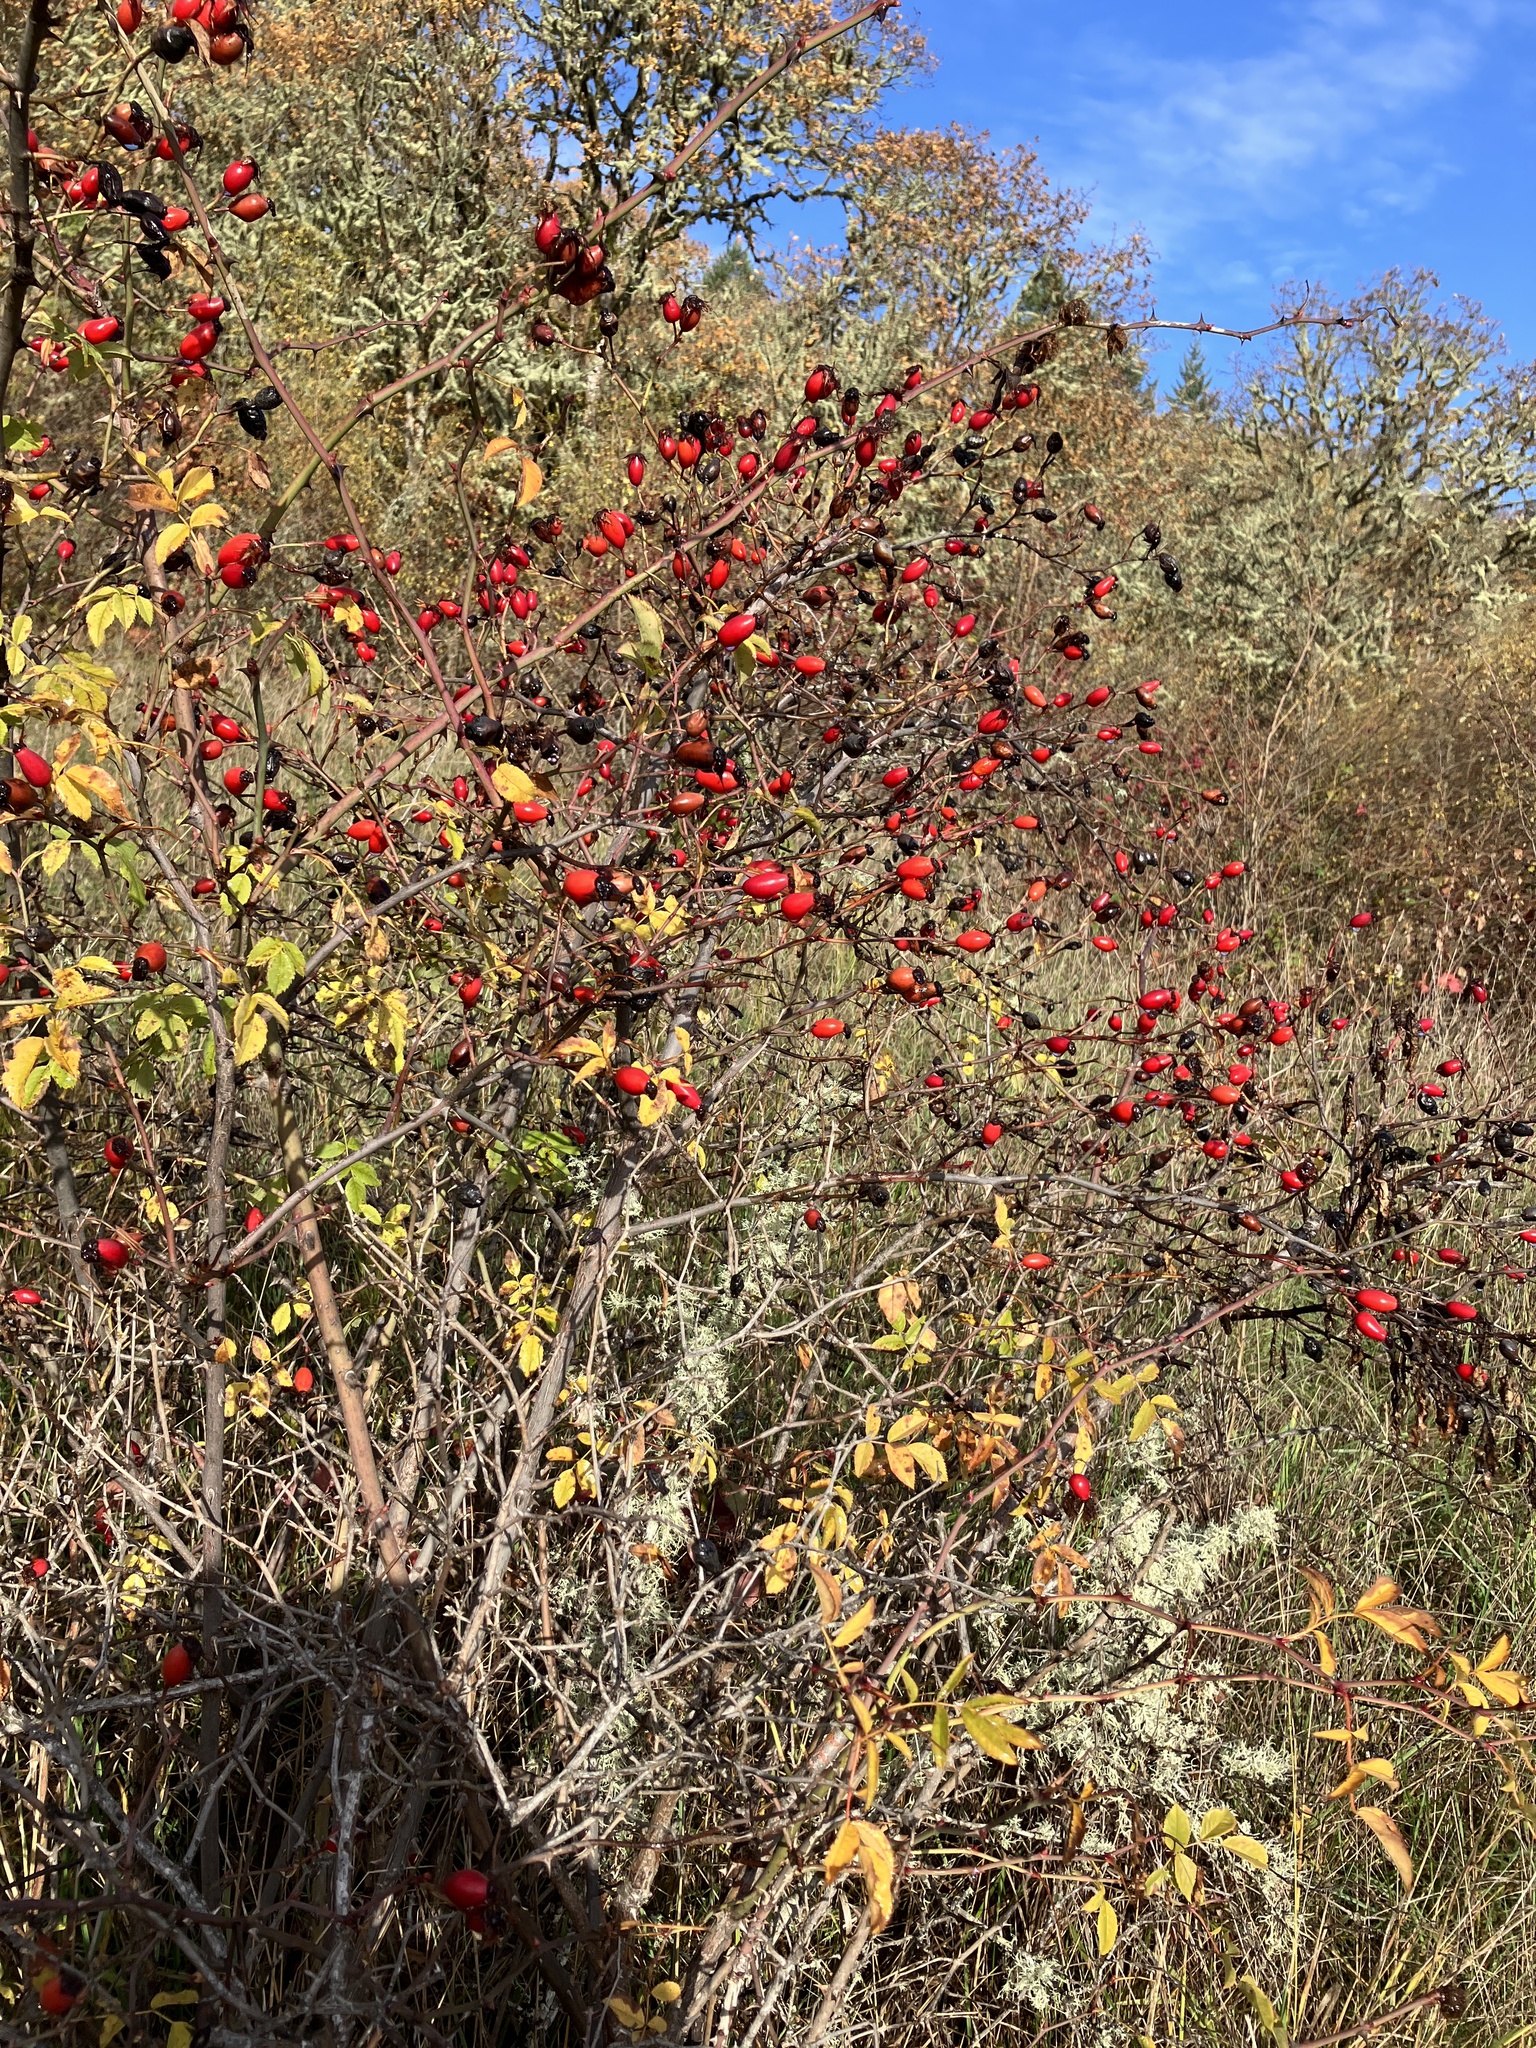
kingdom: Plantae
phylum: Tracheophyta
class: Magnoliopsida
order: Rosales
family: Rosaceae
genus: Rosa
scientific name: Rosa rubiginosa
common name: Sweet-briar
